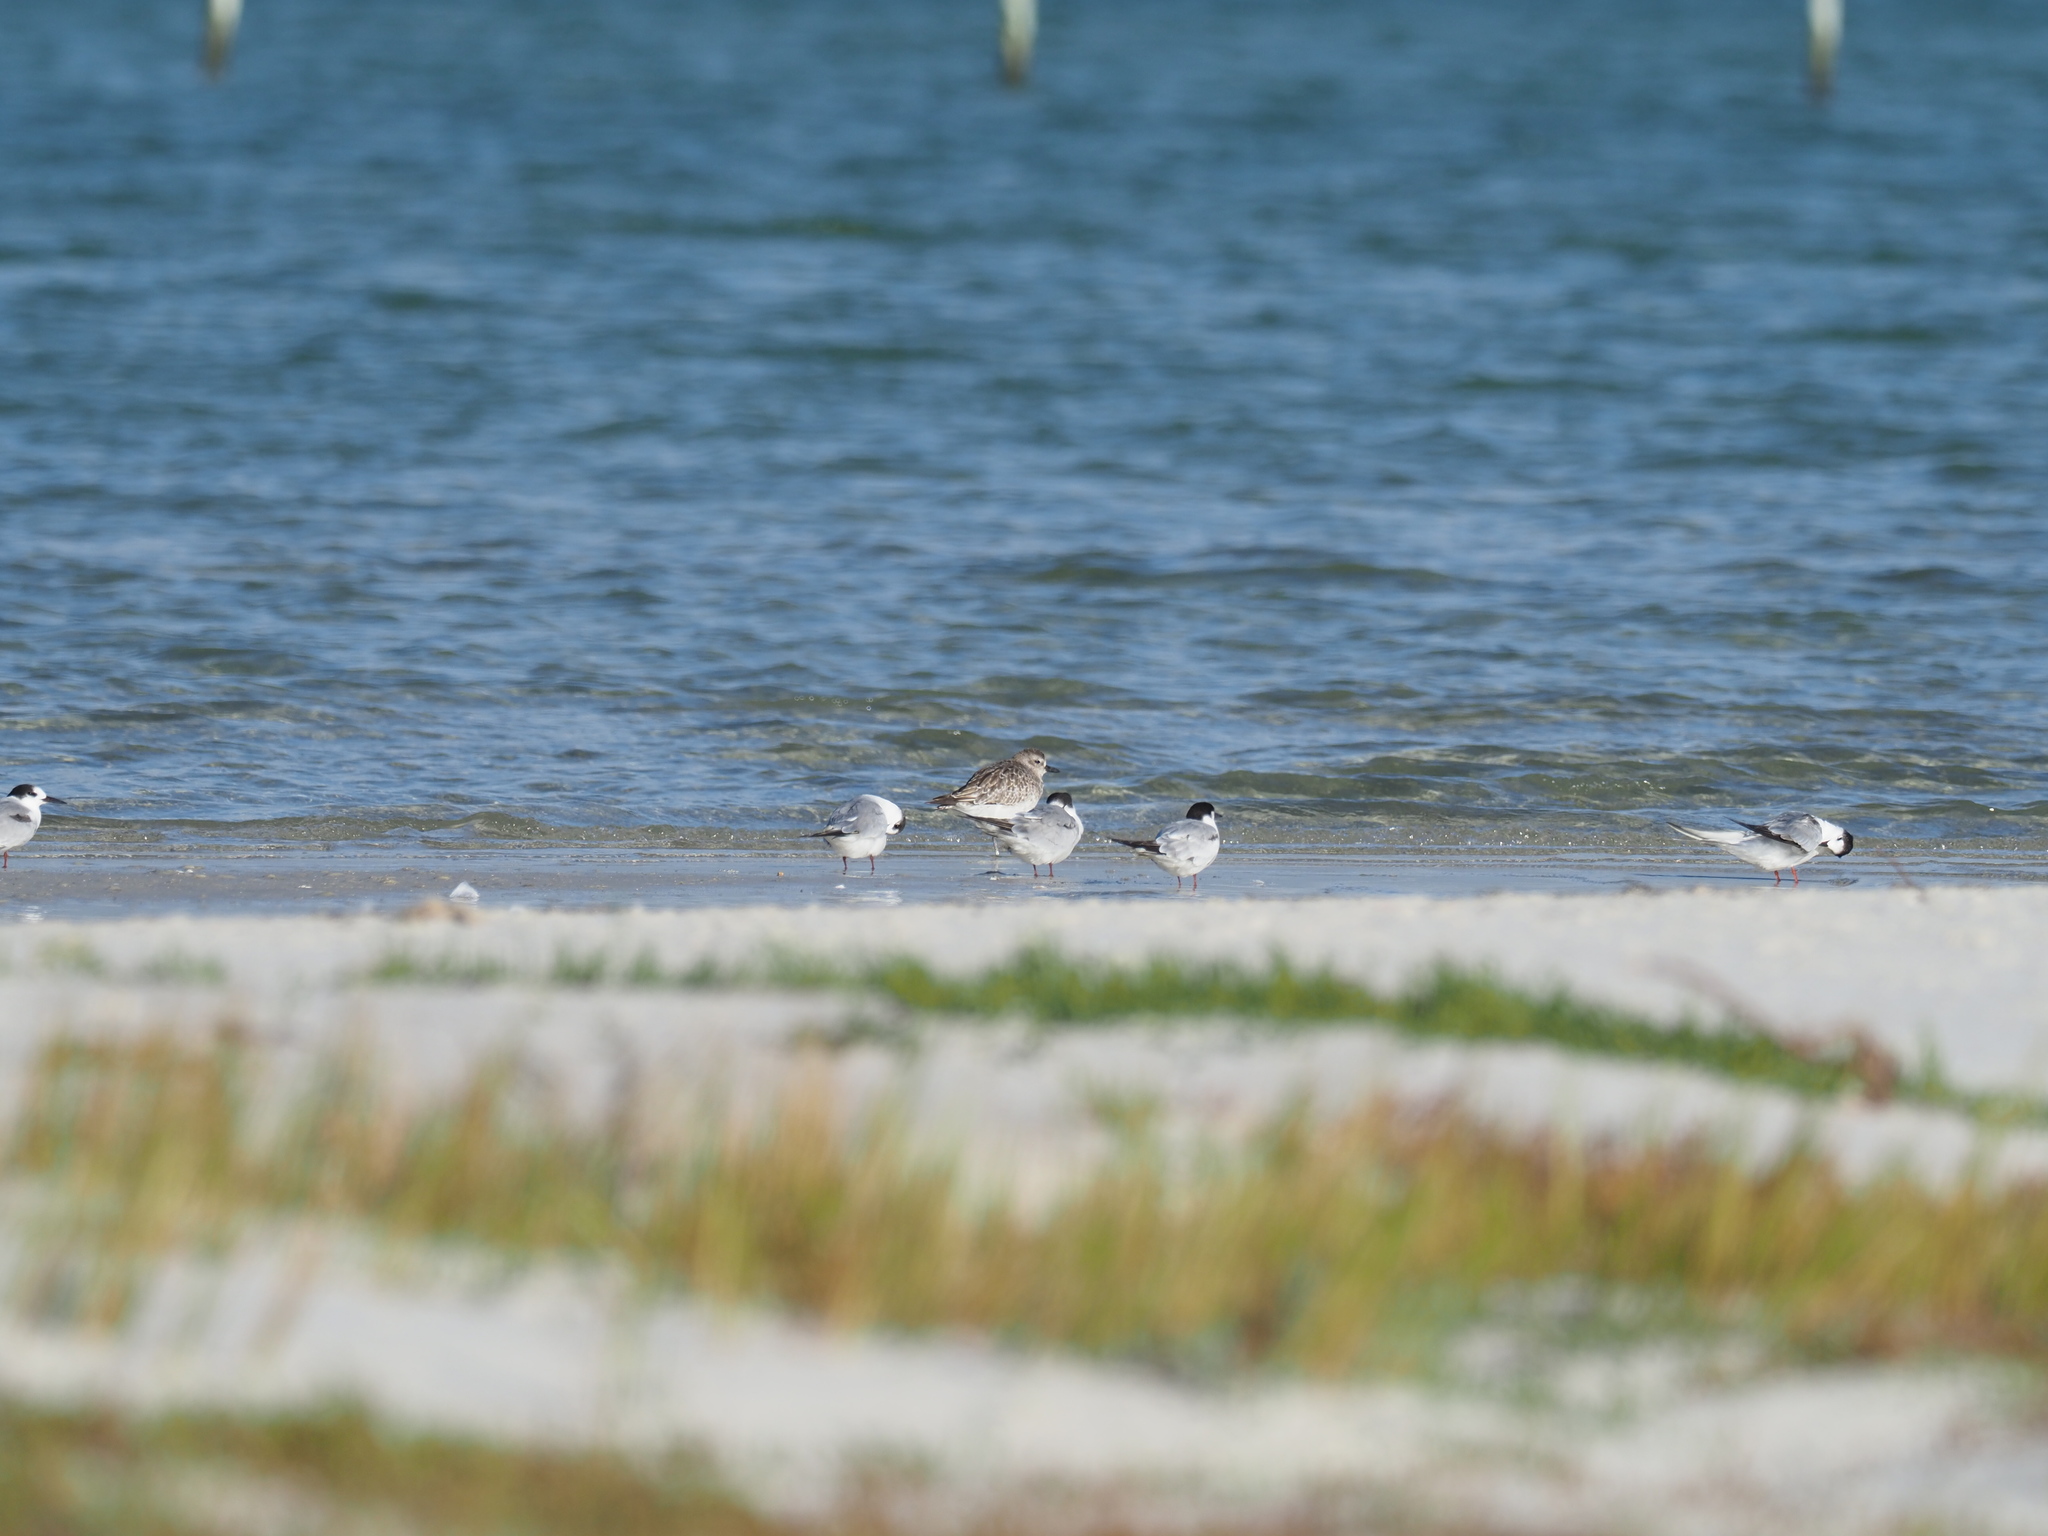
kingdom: Animalia
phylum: Chordata
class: Aves
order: Charadriiformes
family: Charadriidae
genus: Pluvialis
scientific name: Pluvialis squatarola
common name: Grey plover
